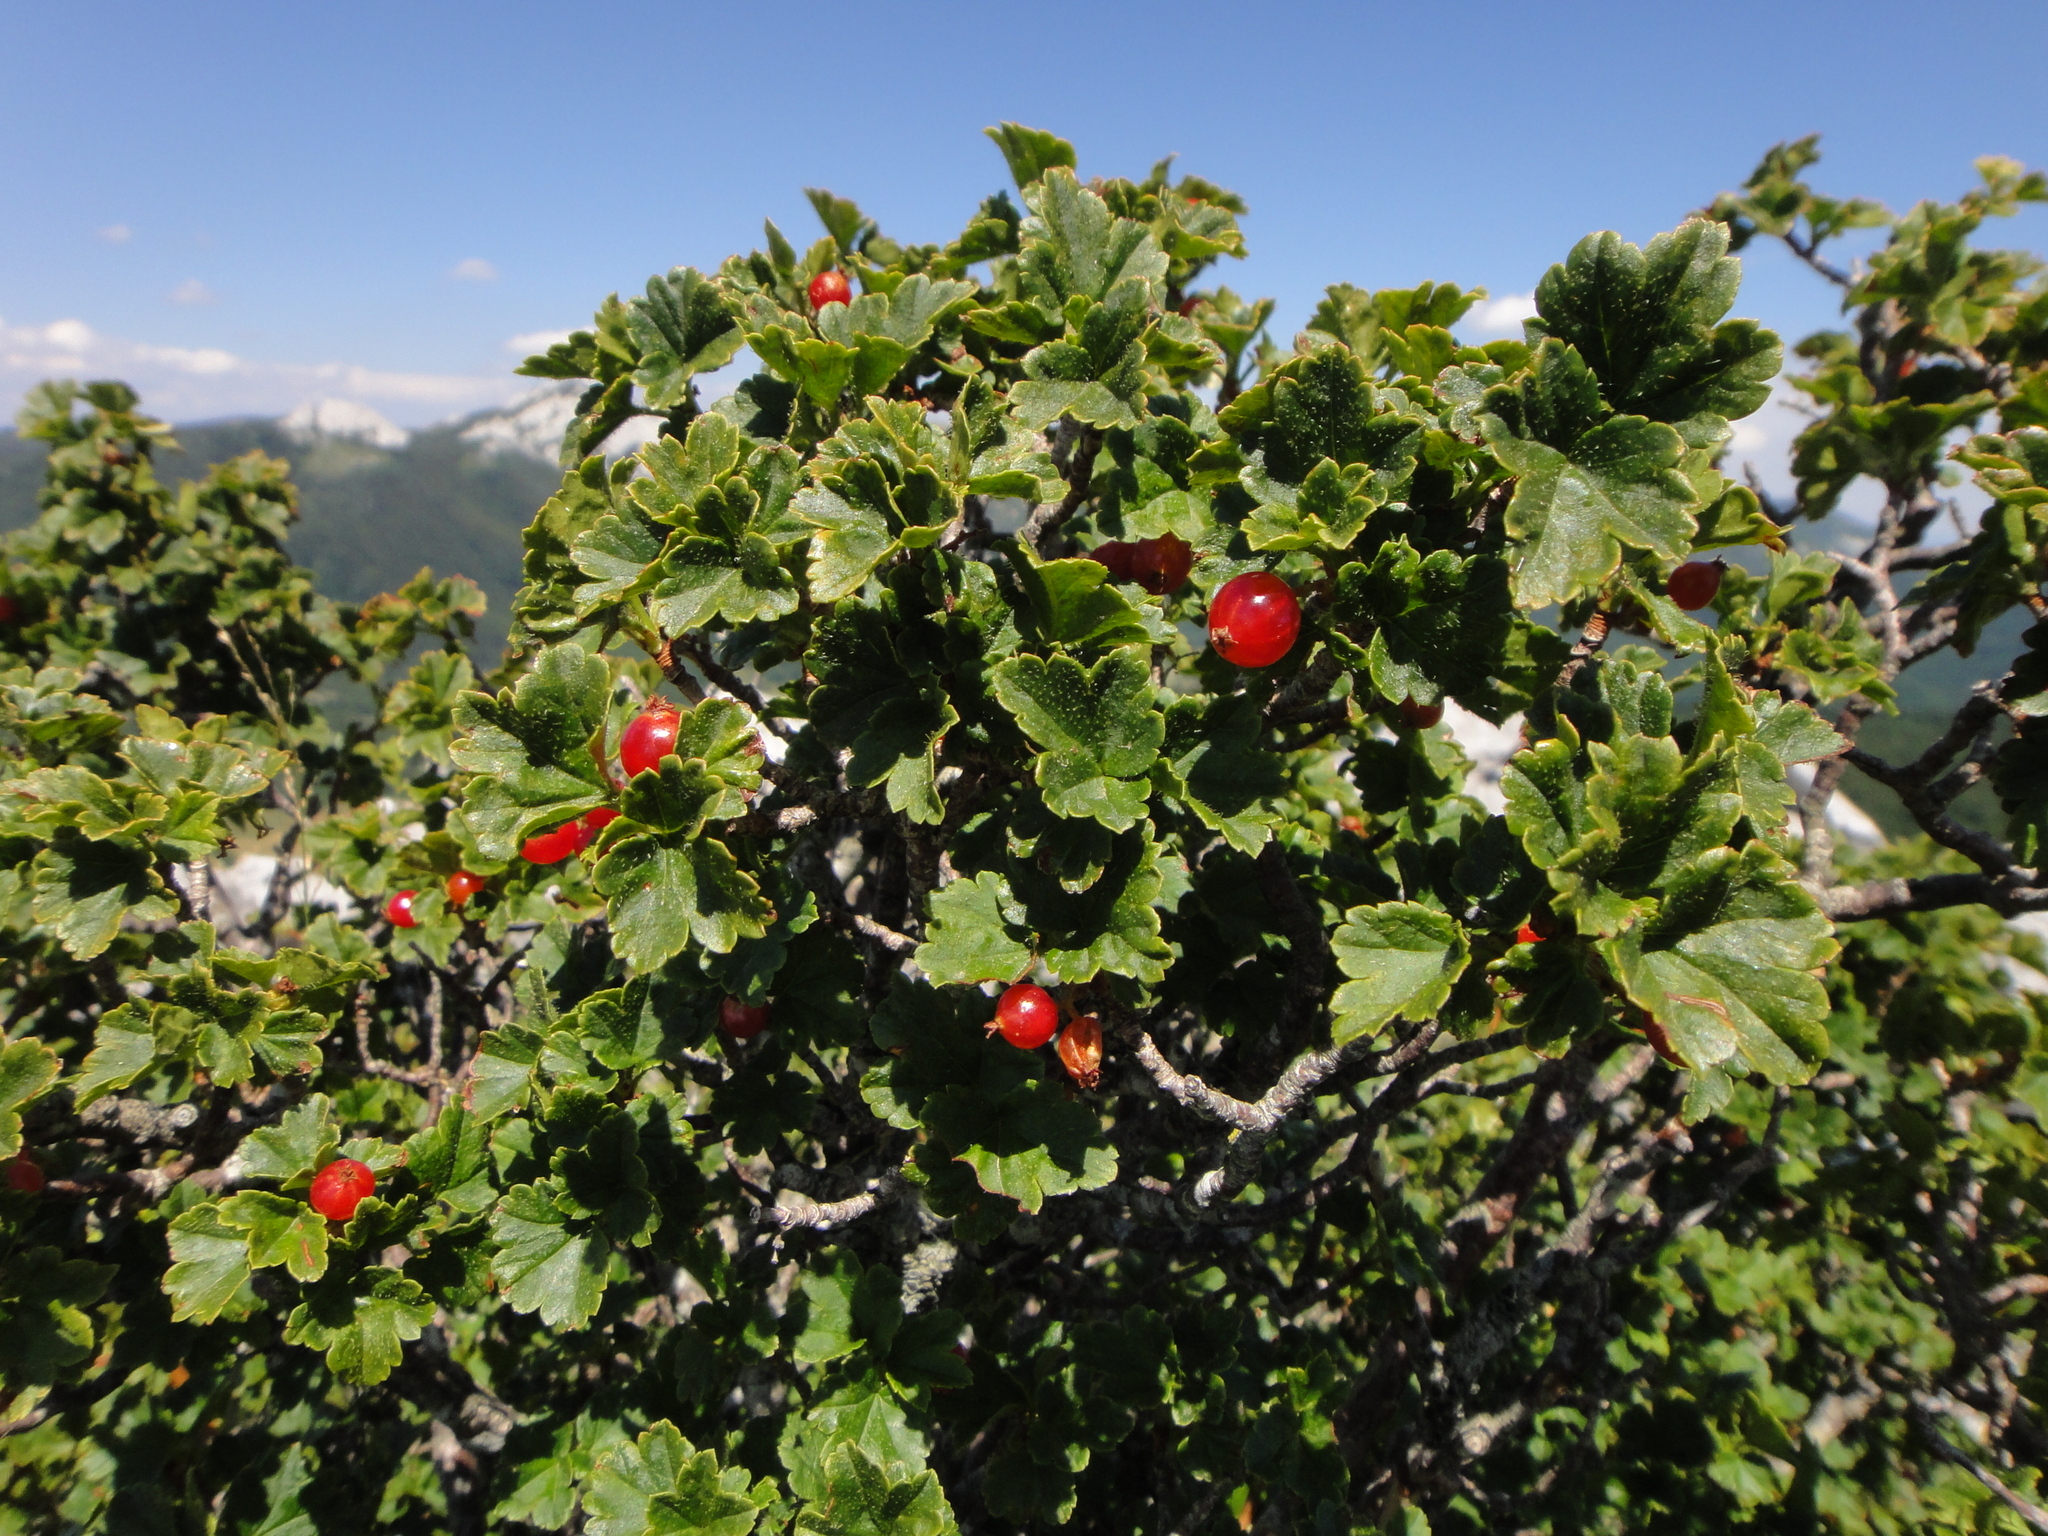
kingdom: Plantae
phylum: Tracheophyta
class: Magnoliopsida
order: Saxifragales
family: Grossulariaceae
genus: Ribes
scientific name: Ribes alpinum
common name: Alpine currant
